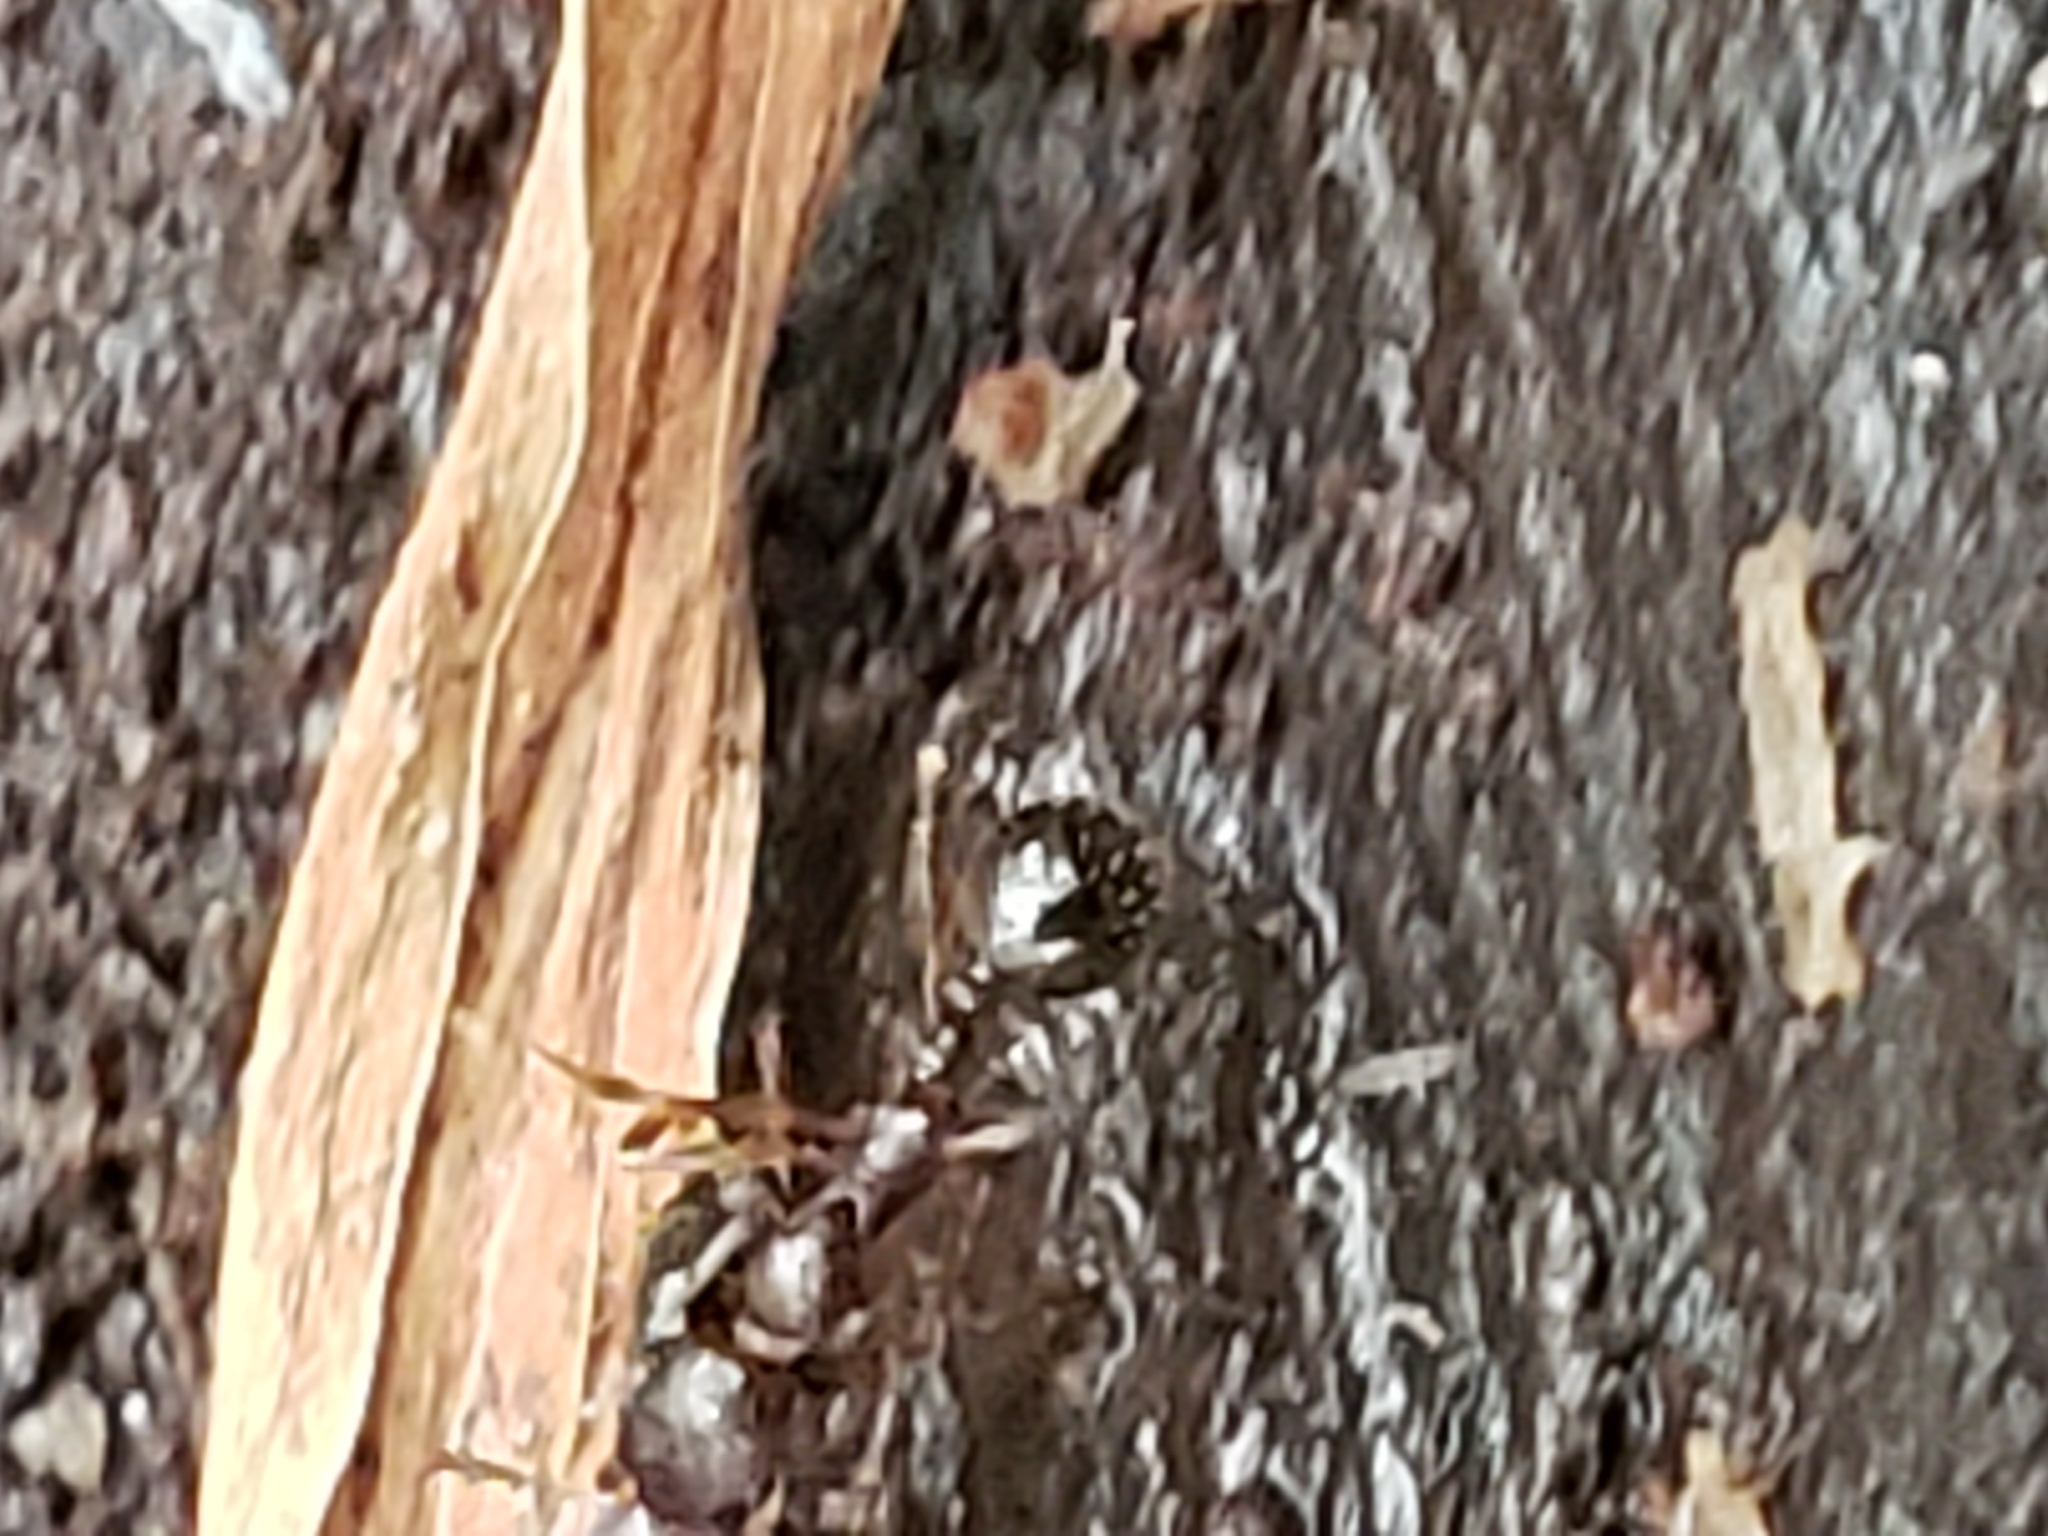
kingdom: Animalia
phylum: Arthropoda
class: Insecta
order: Hymenoptera
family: Formicidae
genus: Aphaenogaster
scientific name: Aphaenogaster
